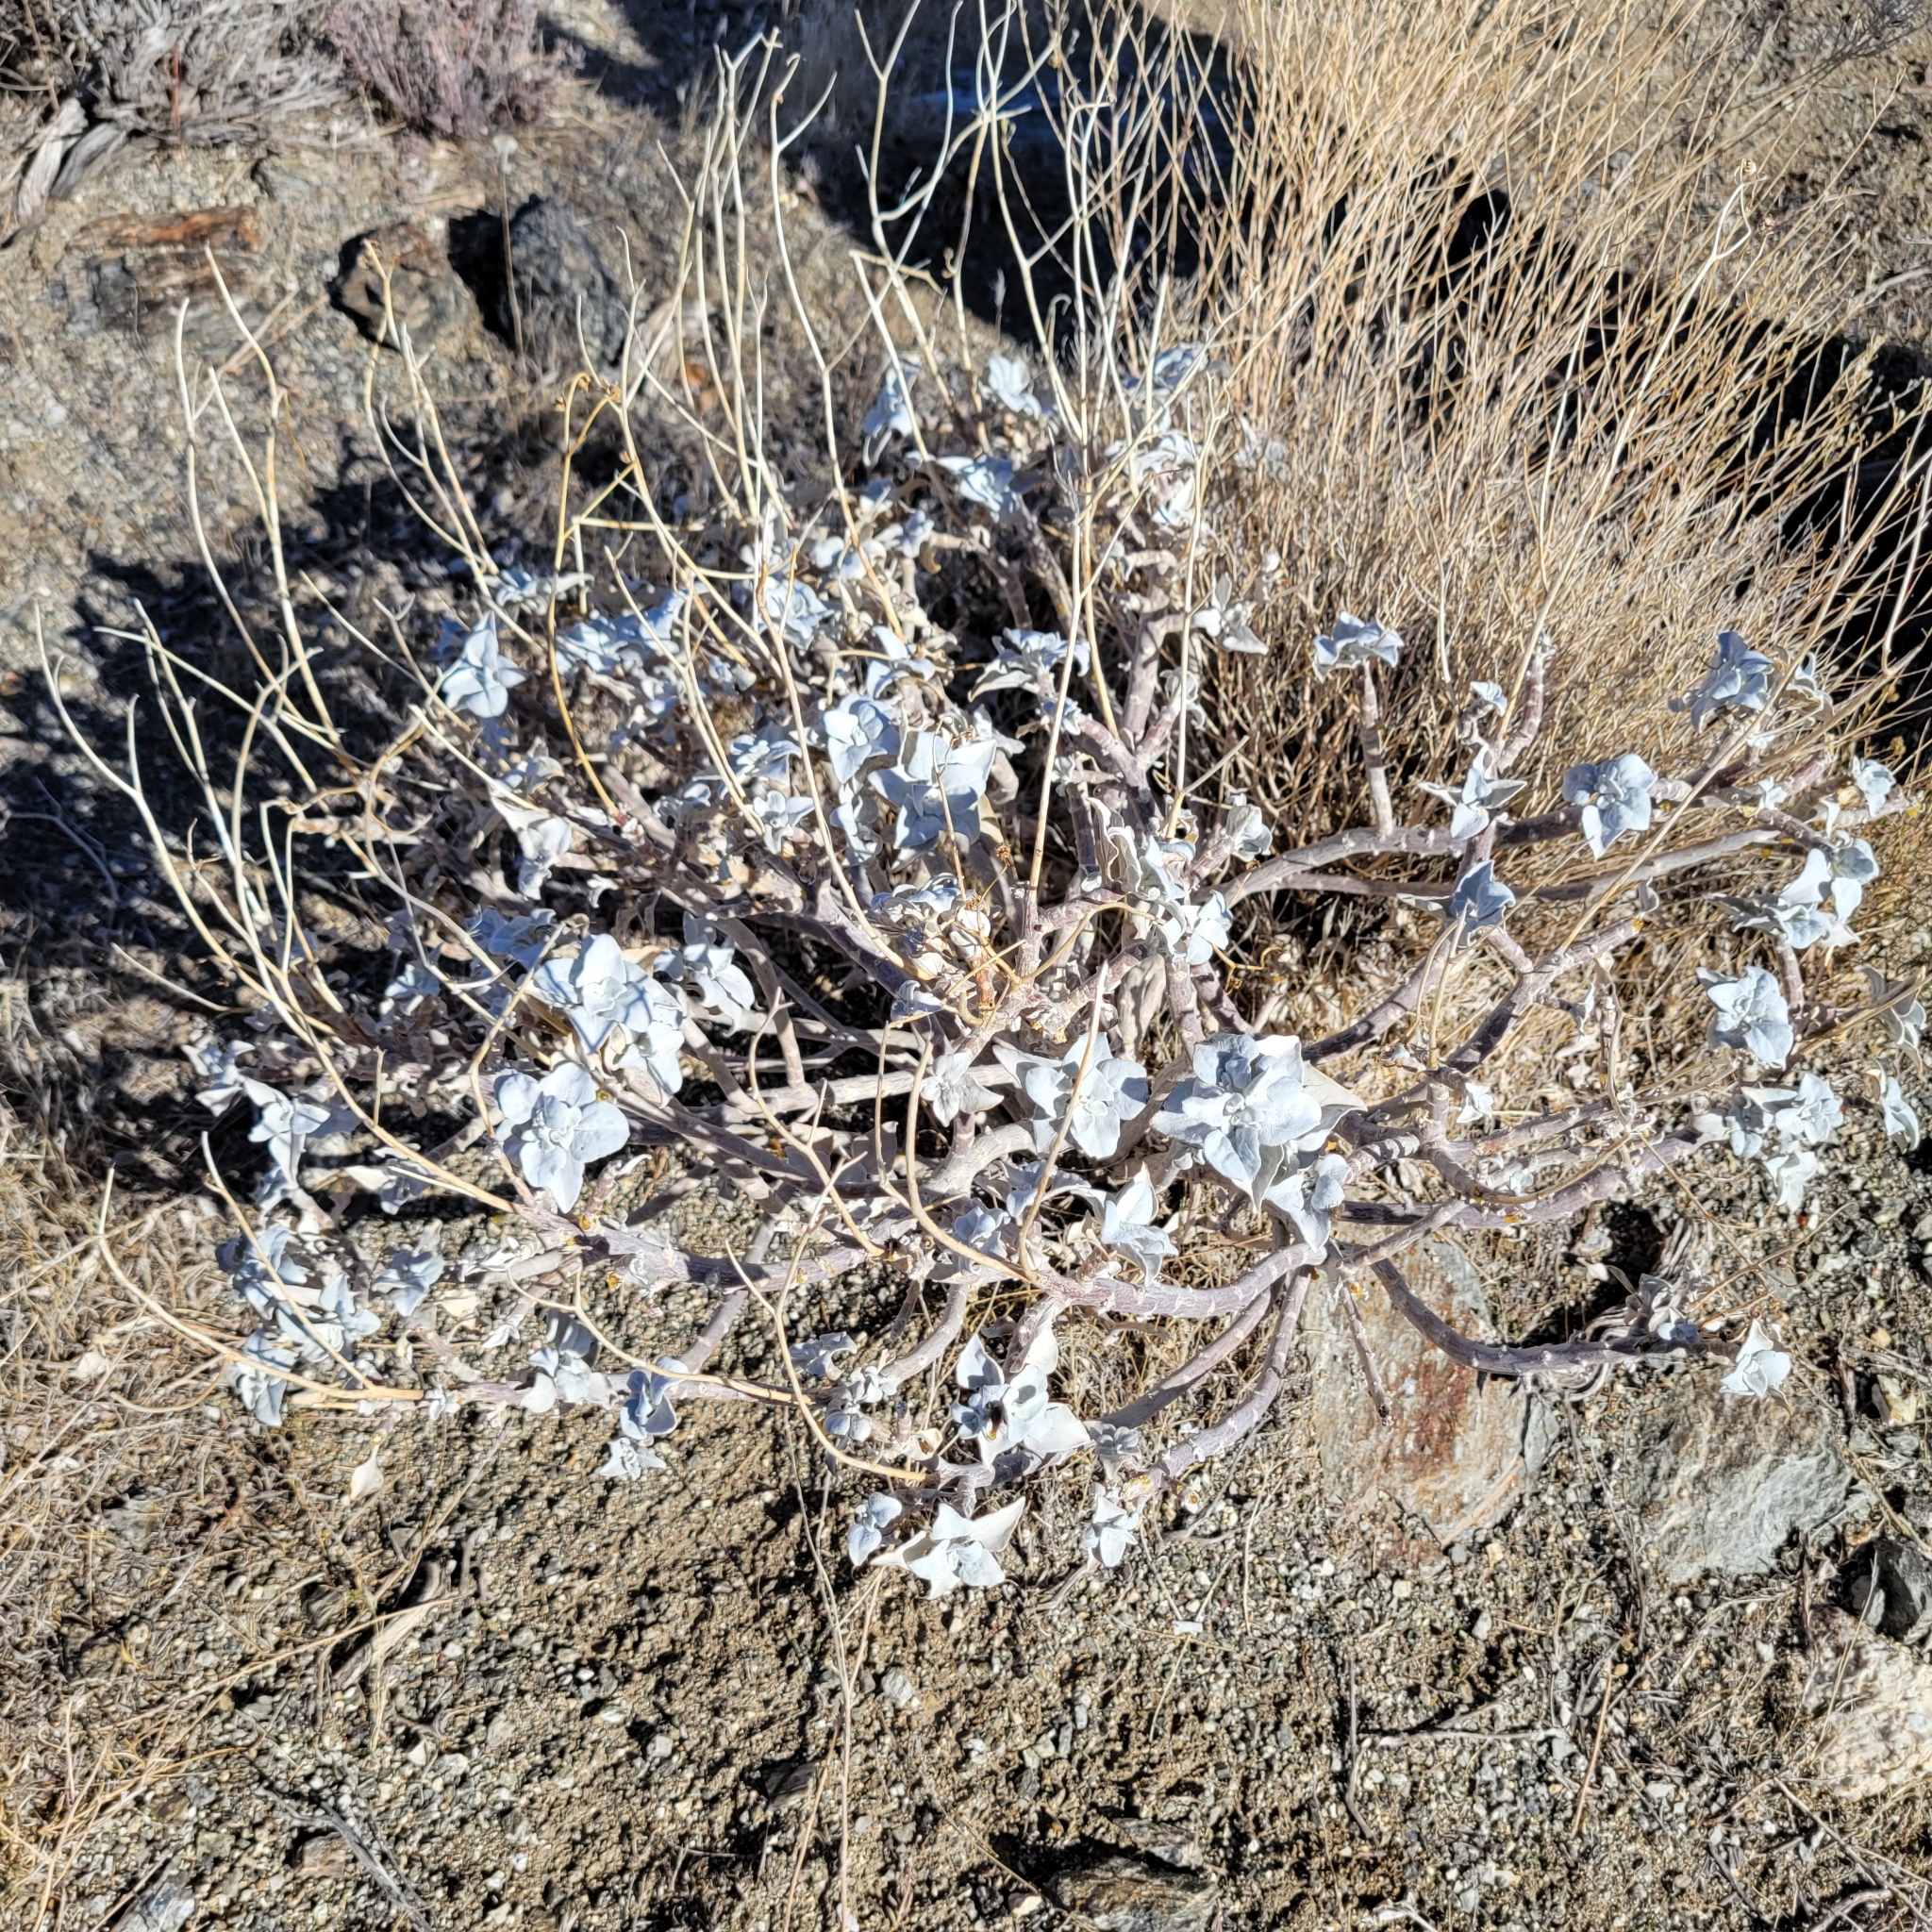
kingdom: Plantae
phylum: Tracheophyta
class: Magnoliopsida
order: Asterales
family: Asteraceae
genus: Encelia
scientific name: Encelia farinosa
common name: Brittlebush
